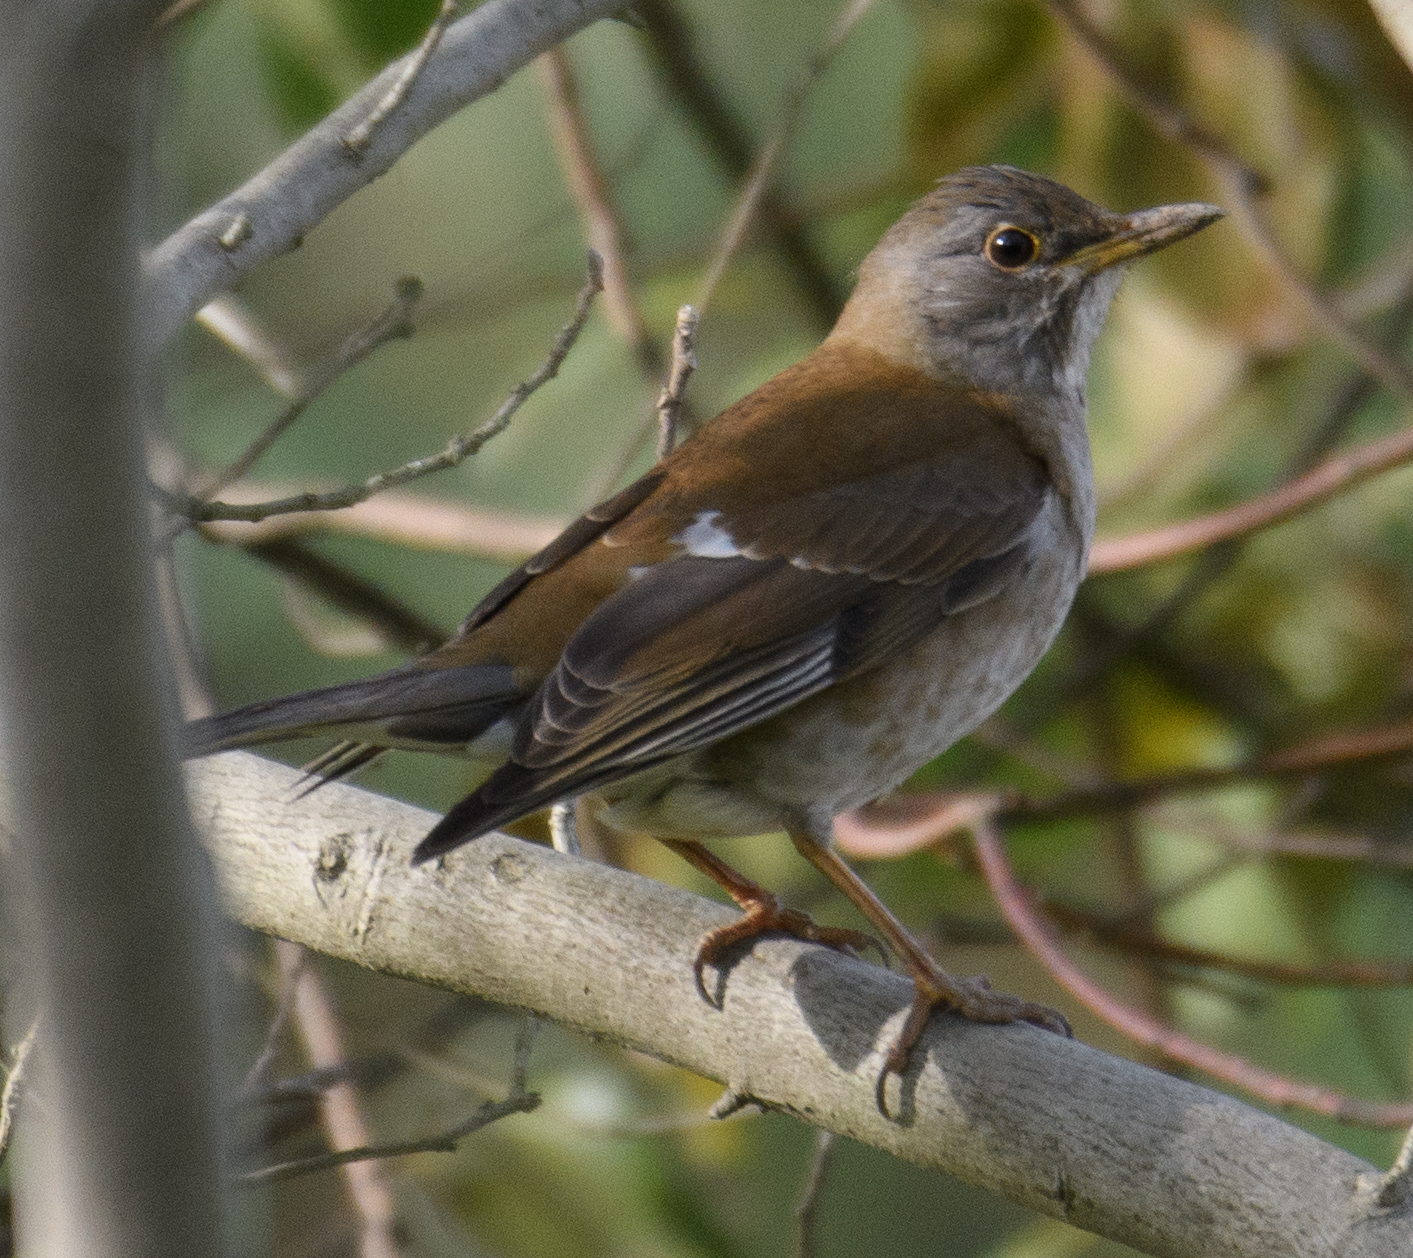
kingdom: Animalia
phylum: Chordata
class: Aves
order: Passeriformes
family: Turdidae
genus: Turdus
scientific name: Turdus pallidus
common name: Pale thrush
